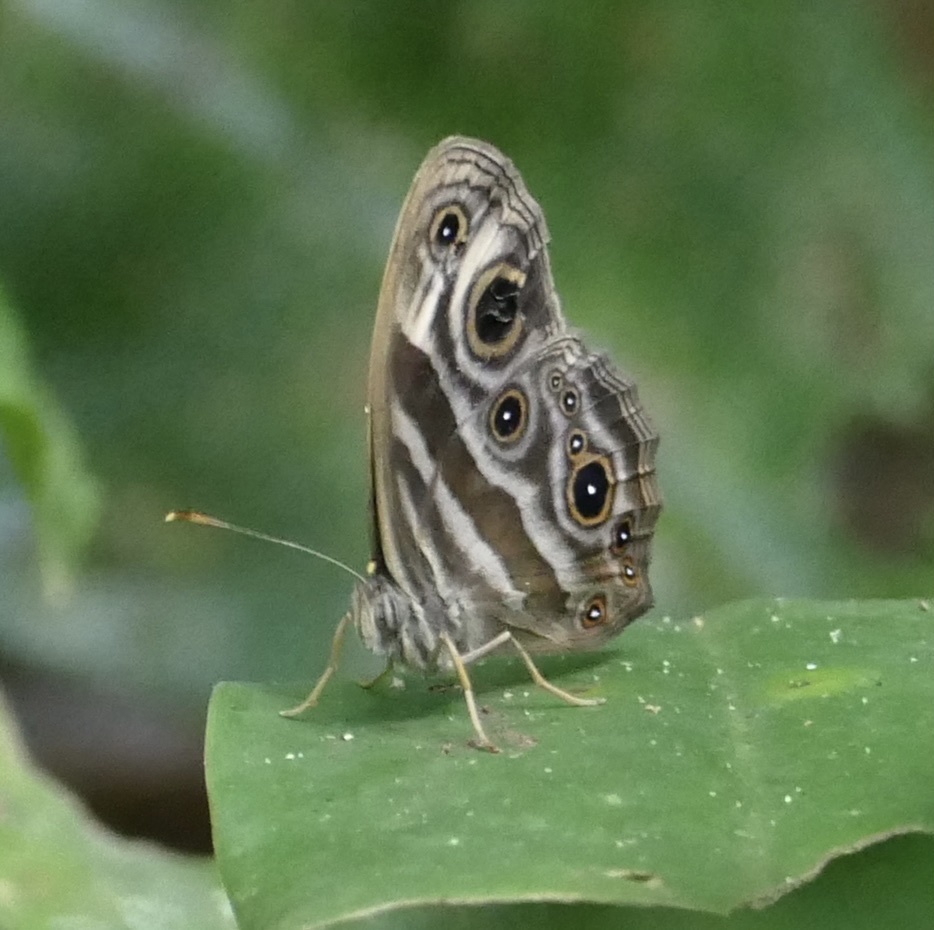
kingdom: Animalia
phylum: Arthropoda
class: Insecta
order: Lepidoptera
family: Nymphalidae
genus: Bicyclus
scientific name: Bicyclus maesseni
